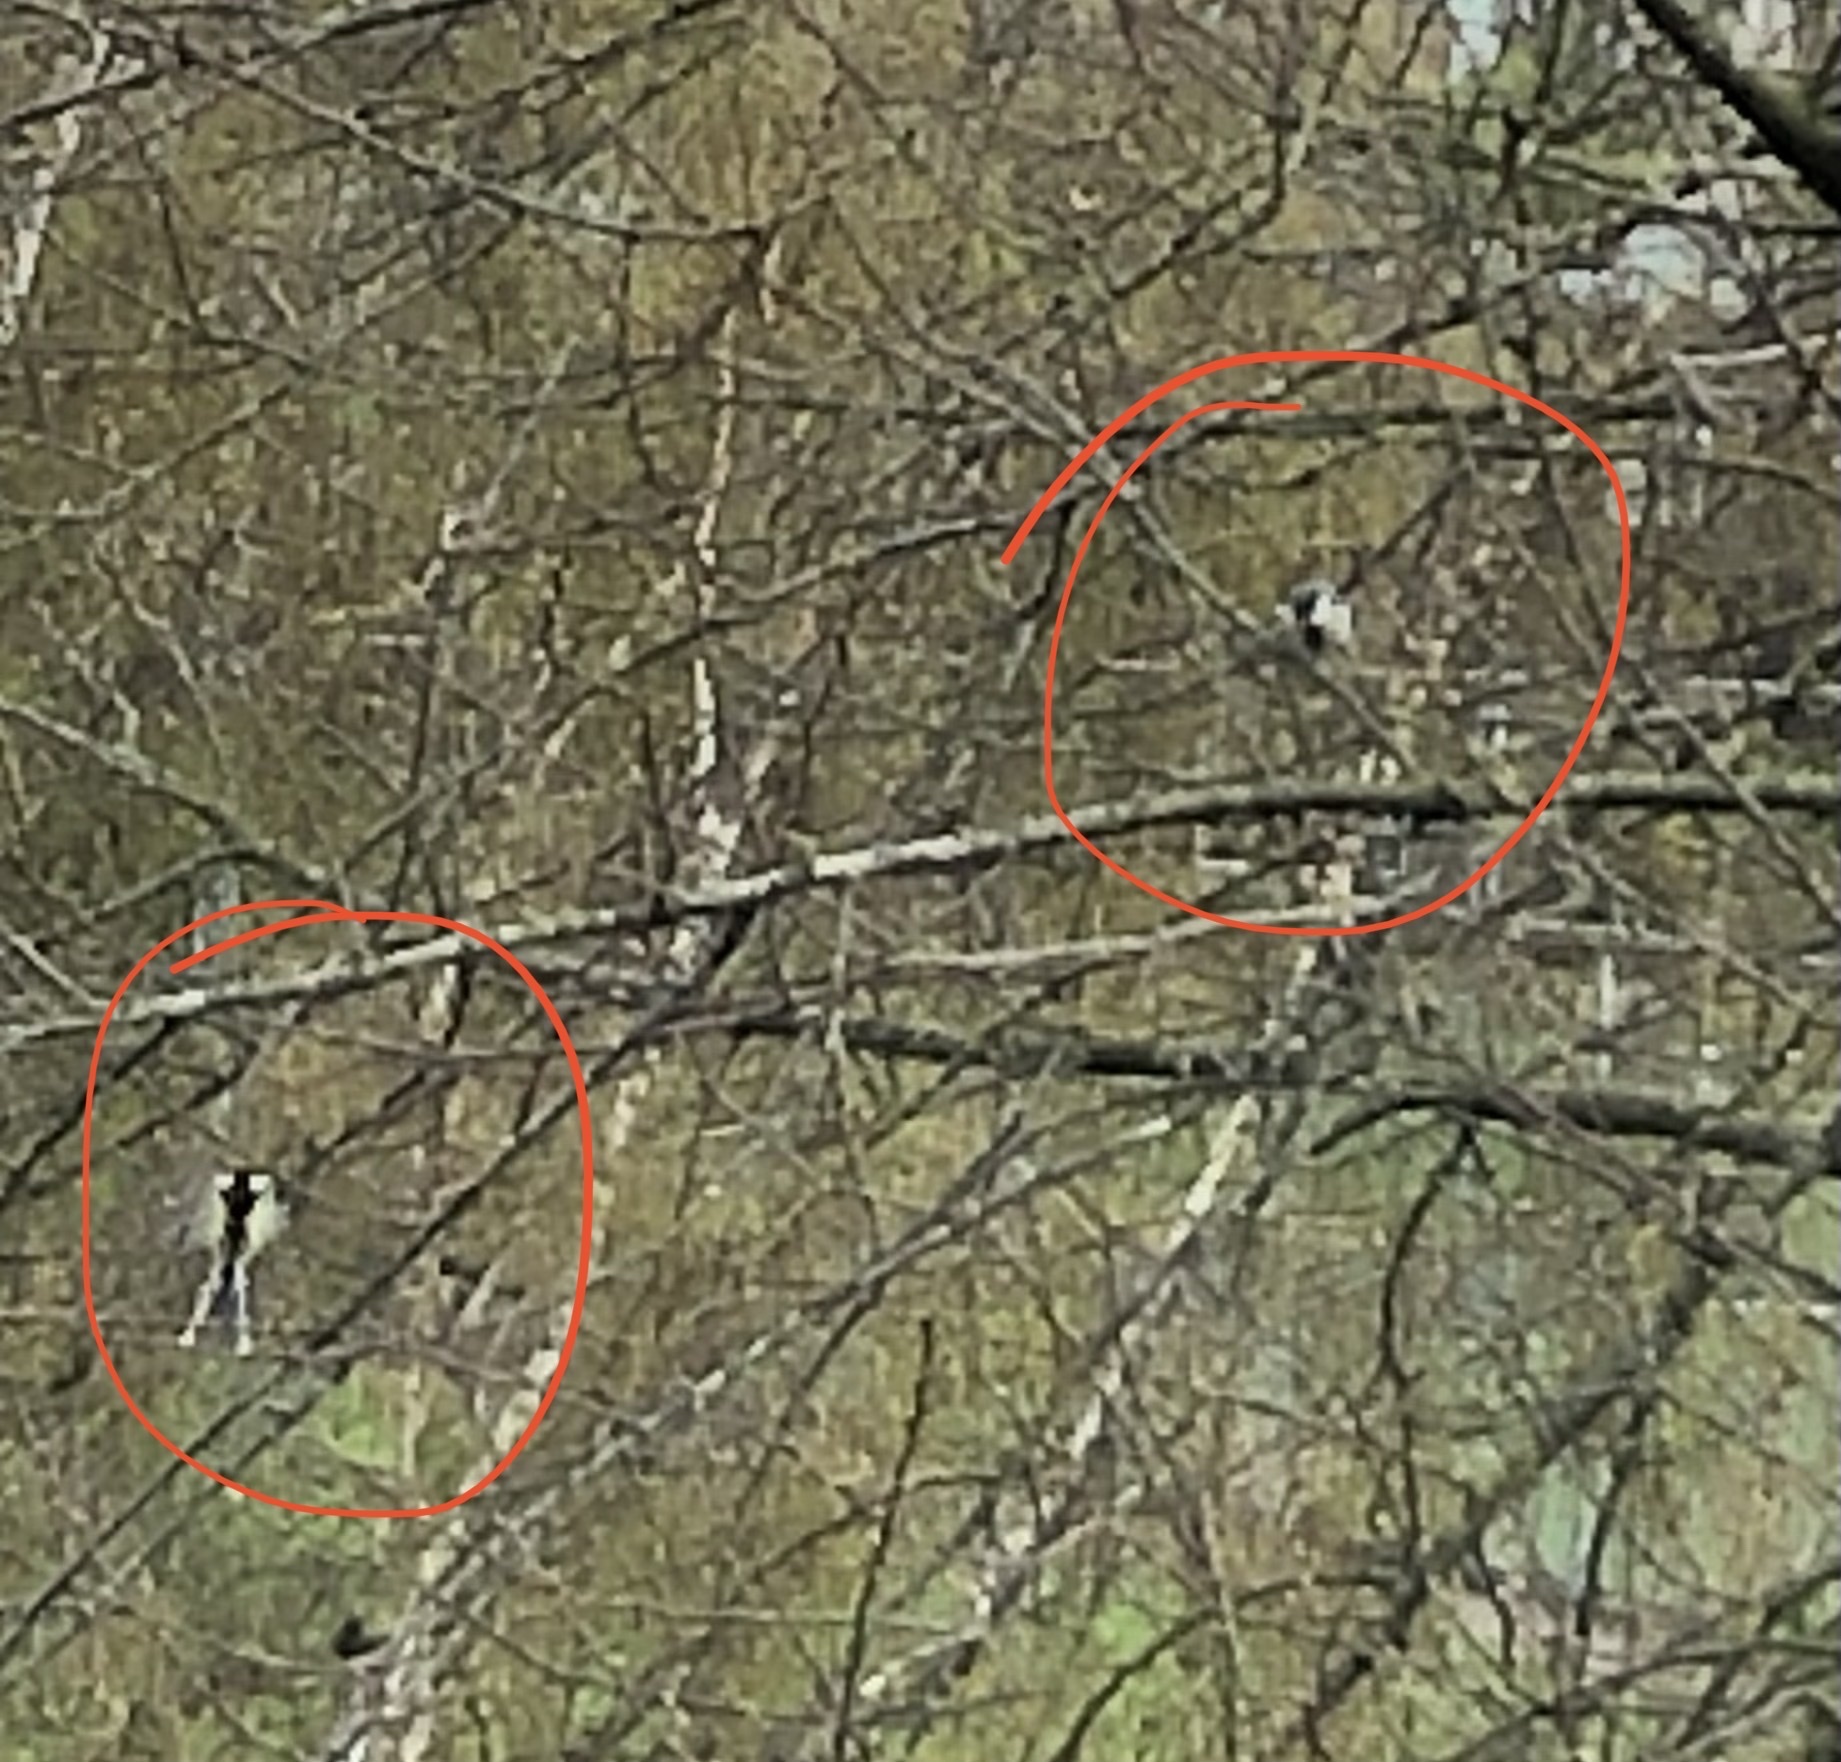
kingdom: Animalia
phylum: Chordata
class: Aves
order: Passeriformes
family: Paridae
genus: Parus
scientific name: Parus major
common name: Great tit
